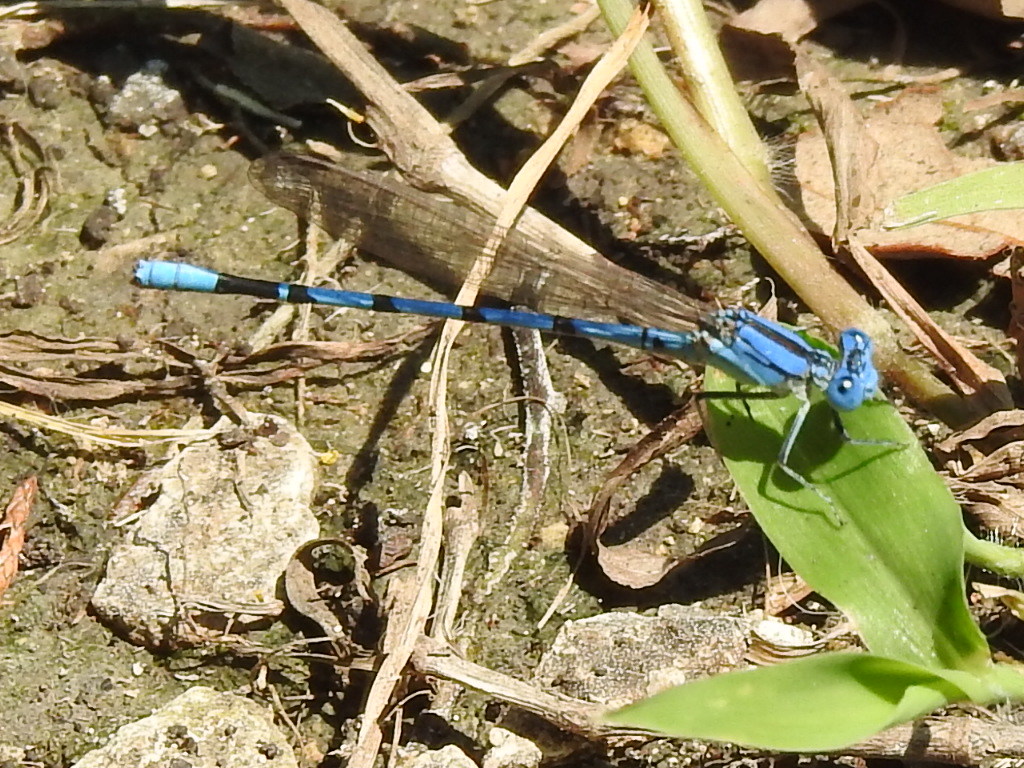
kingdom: Animalia
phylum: Arthropoda
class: Insecta
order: Odonata
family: Coenagrionidae
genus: Argia
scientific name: Argia nahuana
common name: Aztec dancer
